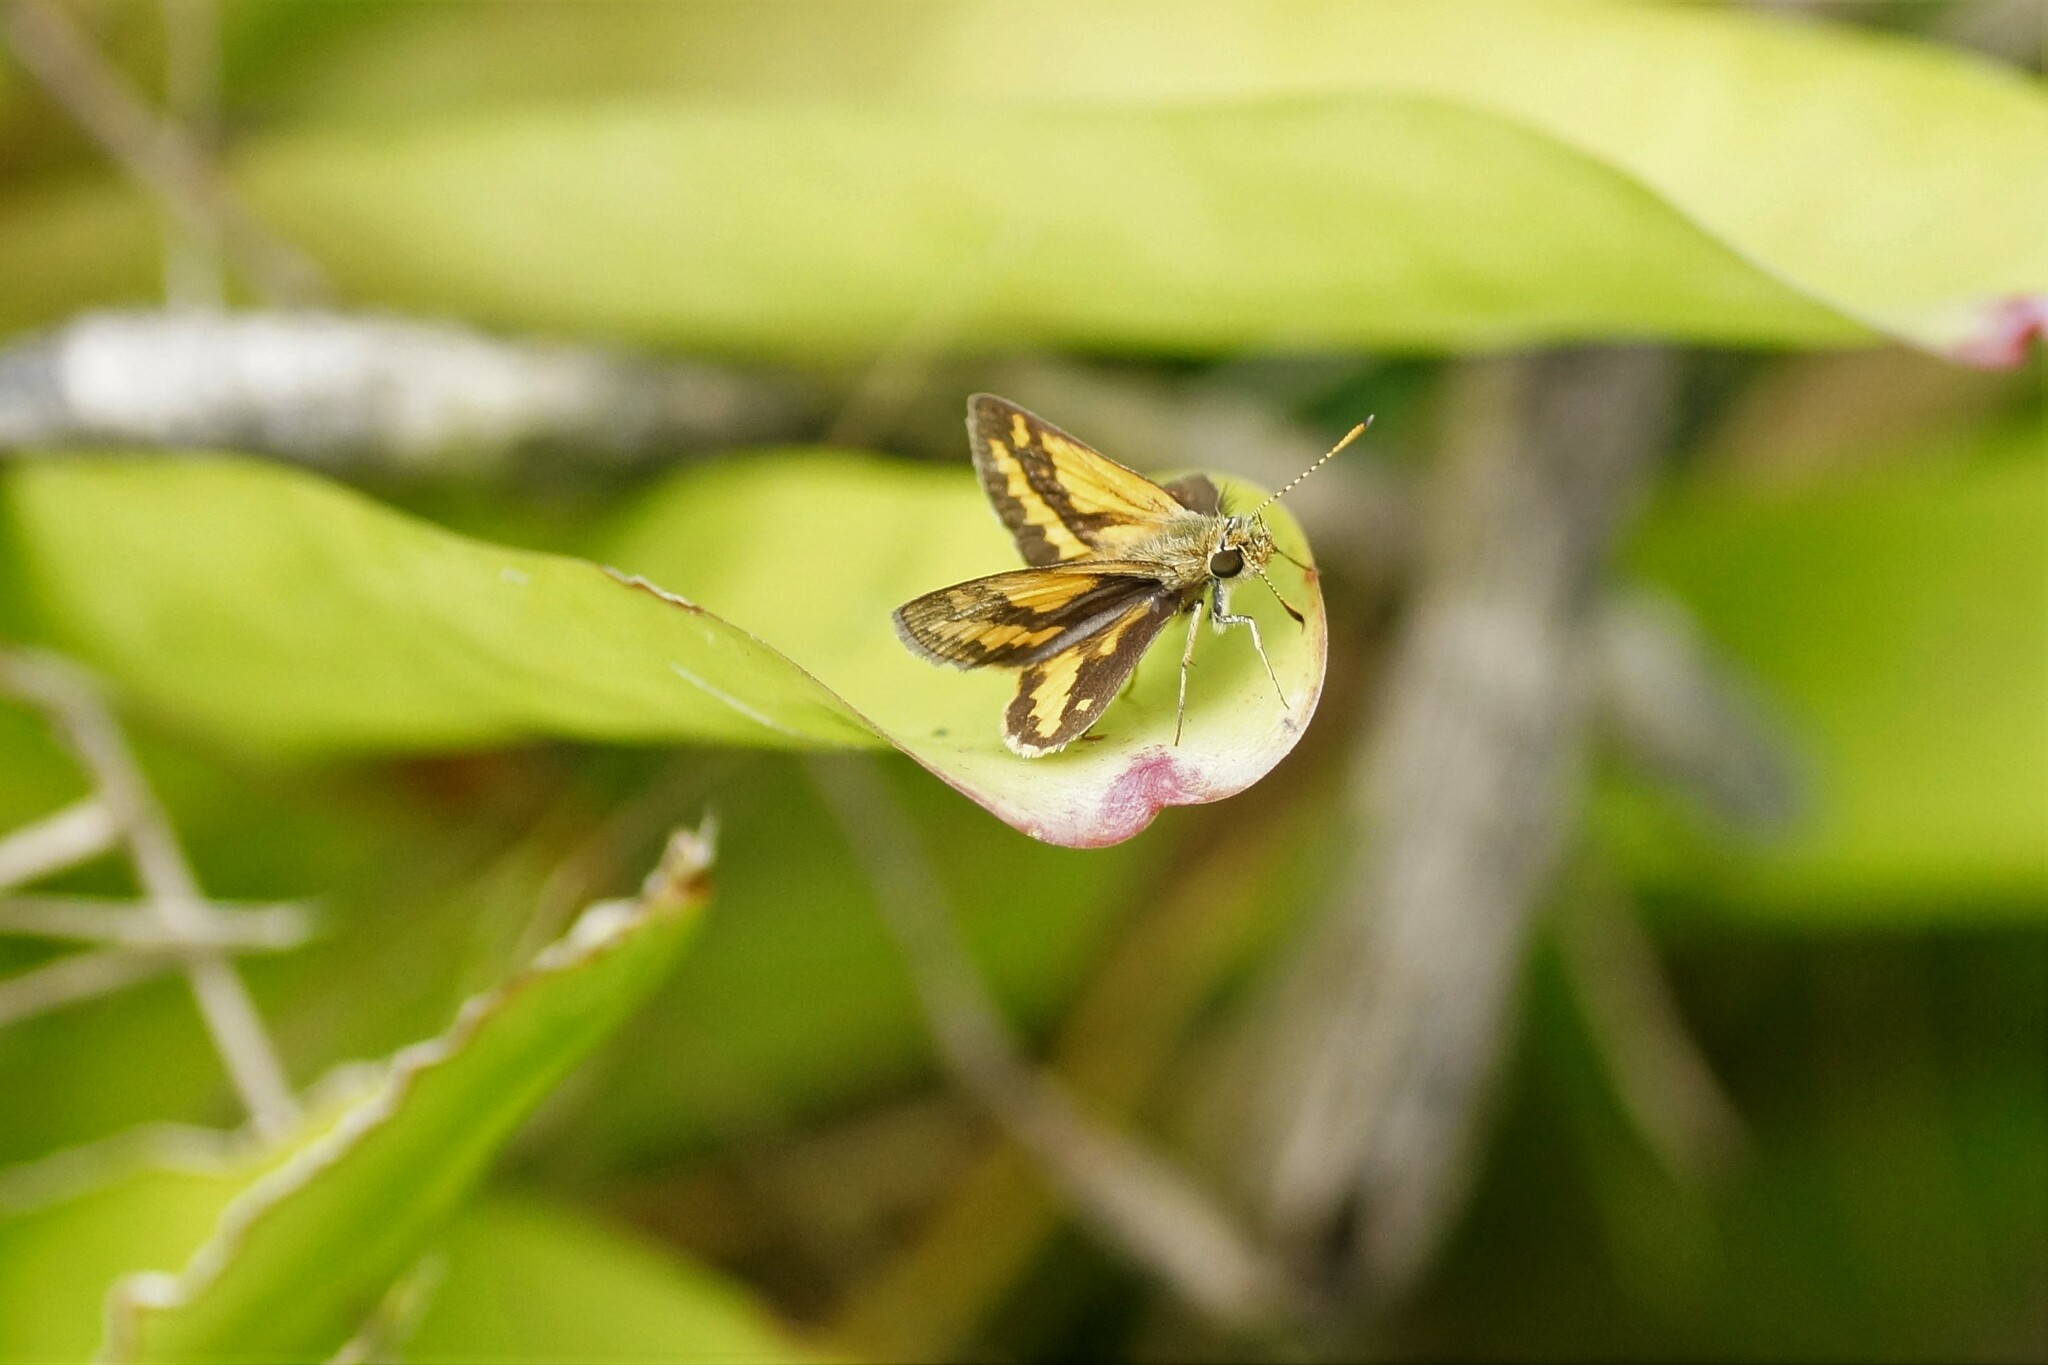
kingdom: Animalia
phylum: Arthropoda
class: Insecta
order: Lepidoptera
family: Hesperiidae
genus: Suniana
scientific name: Suniana sunias
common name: Wide-brand grass-dart
